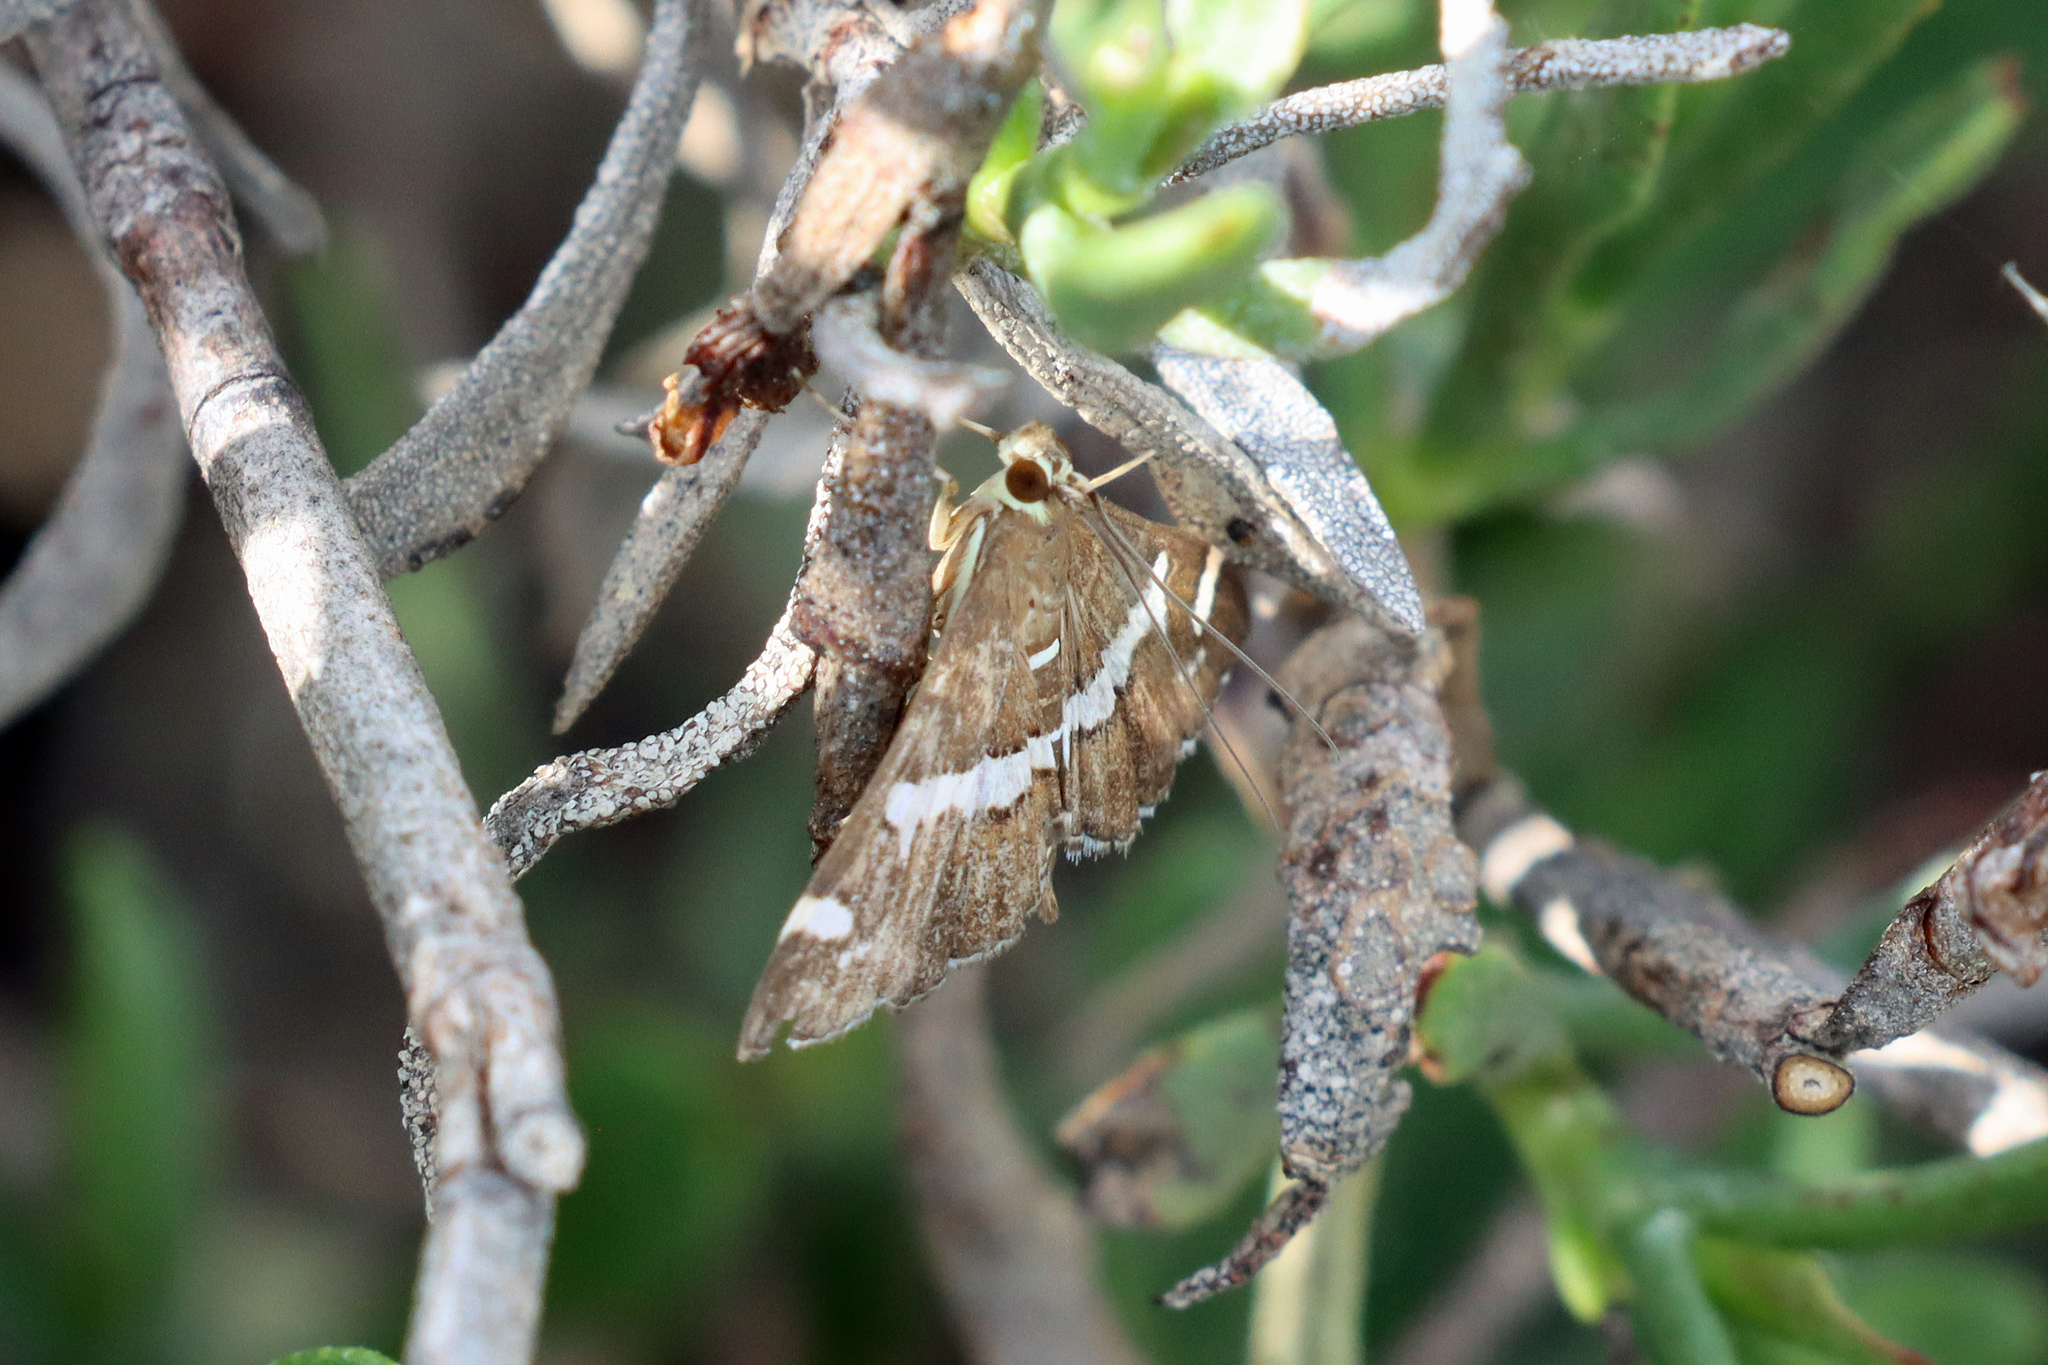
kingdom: Animalia
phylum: Arthropoda
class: Insecta
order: Lepidoptera
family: Crambidae
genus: Spoladea
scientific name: Spoladea recurvalis
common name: Beet webworm moth
